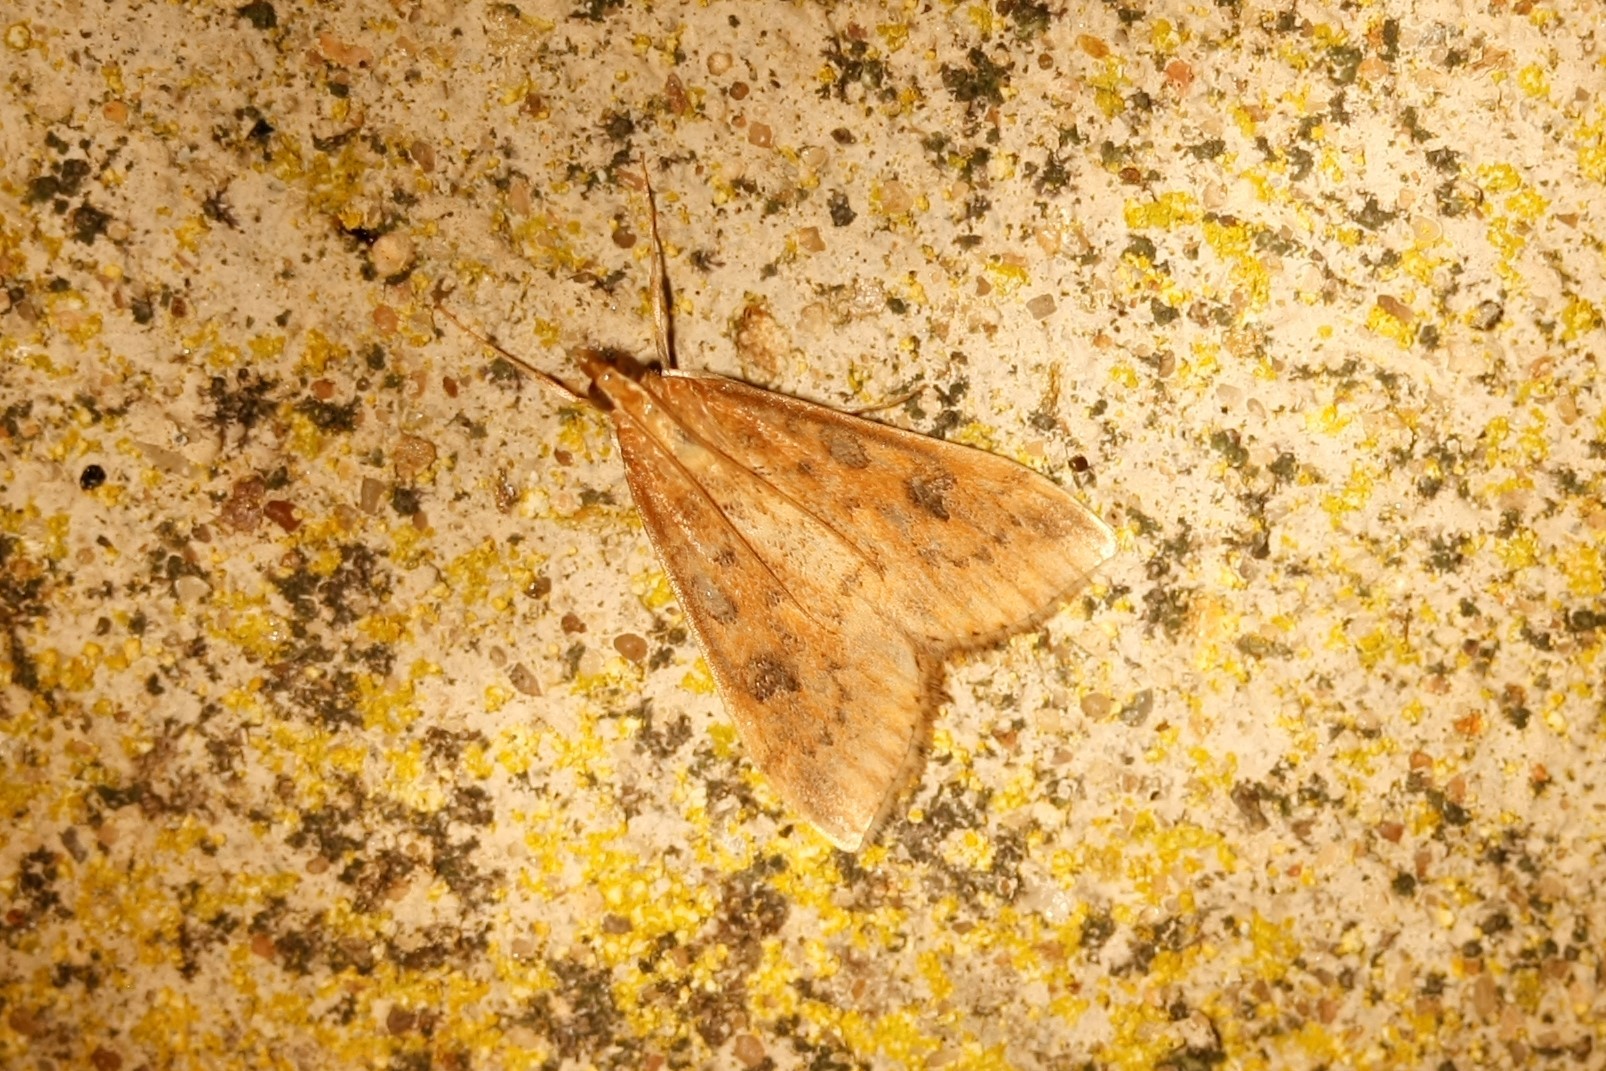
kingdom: Animalia
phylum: Arthropoda
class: Insecta
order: Lepidoptera
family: Crambidae
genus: Udea
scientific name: Udea ferrugalis
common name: Rusty dot
